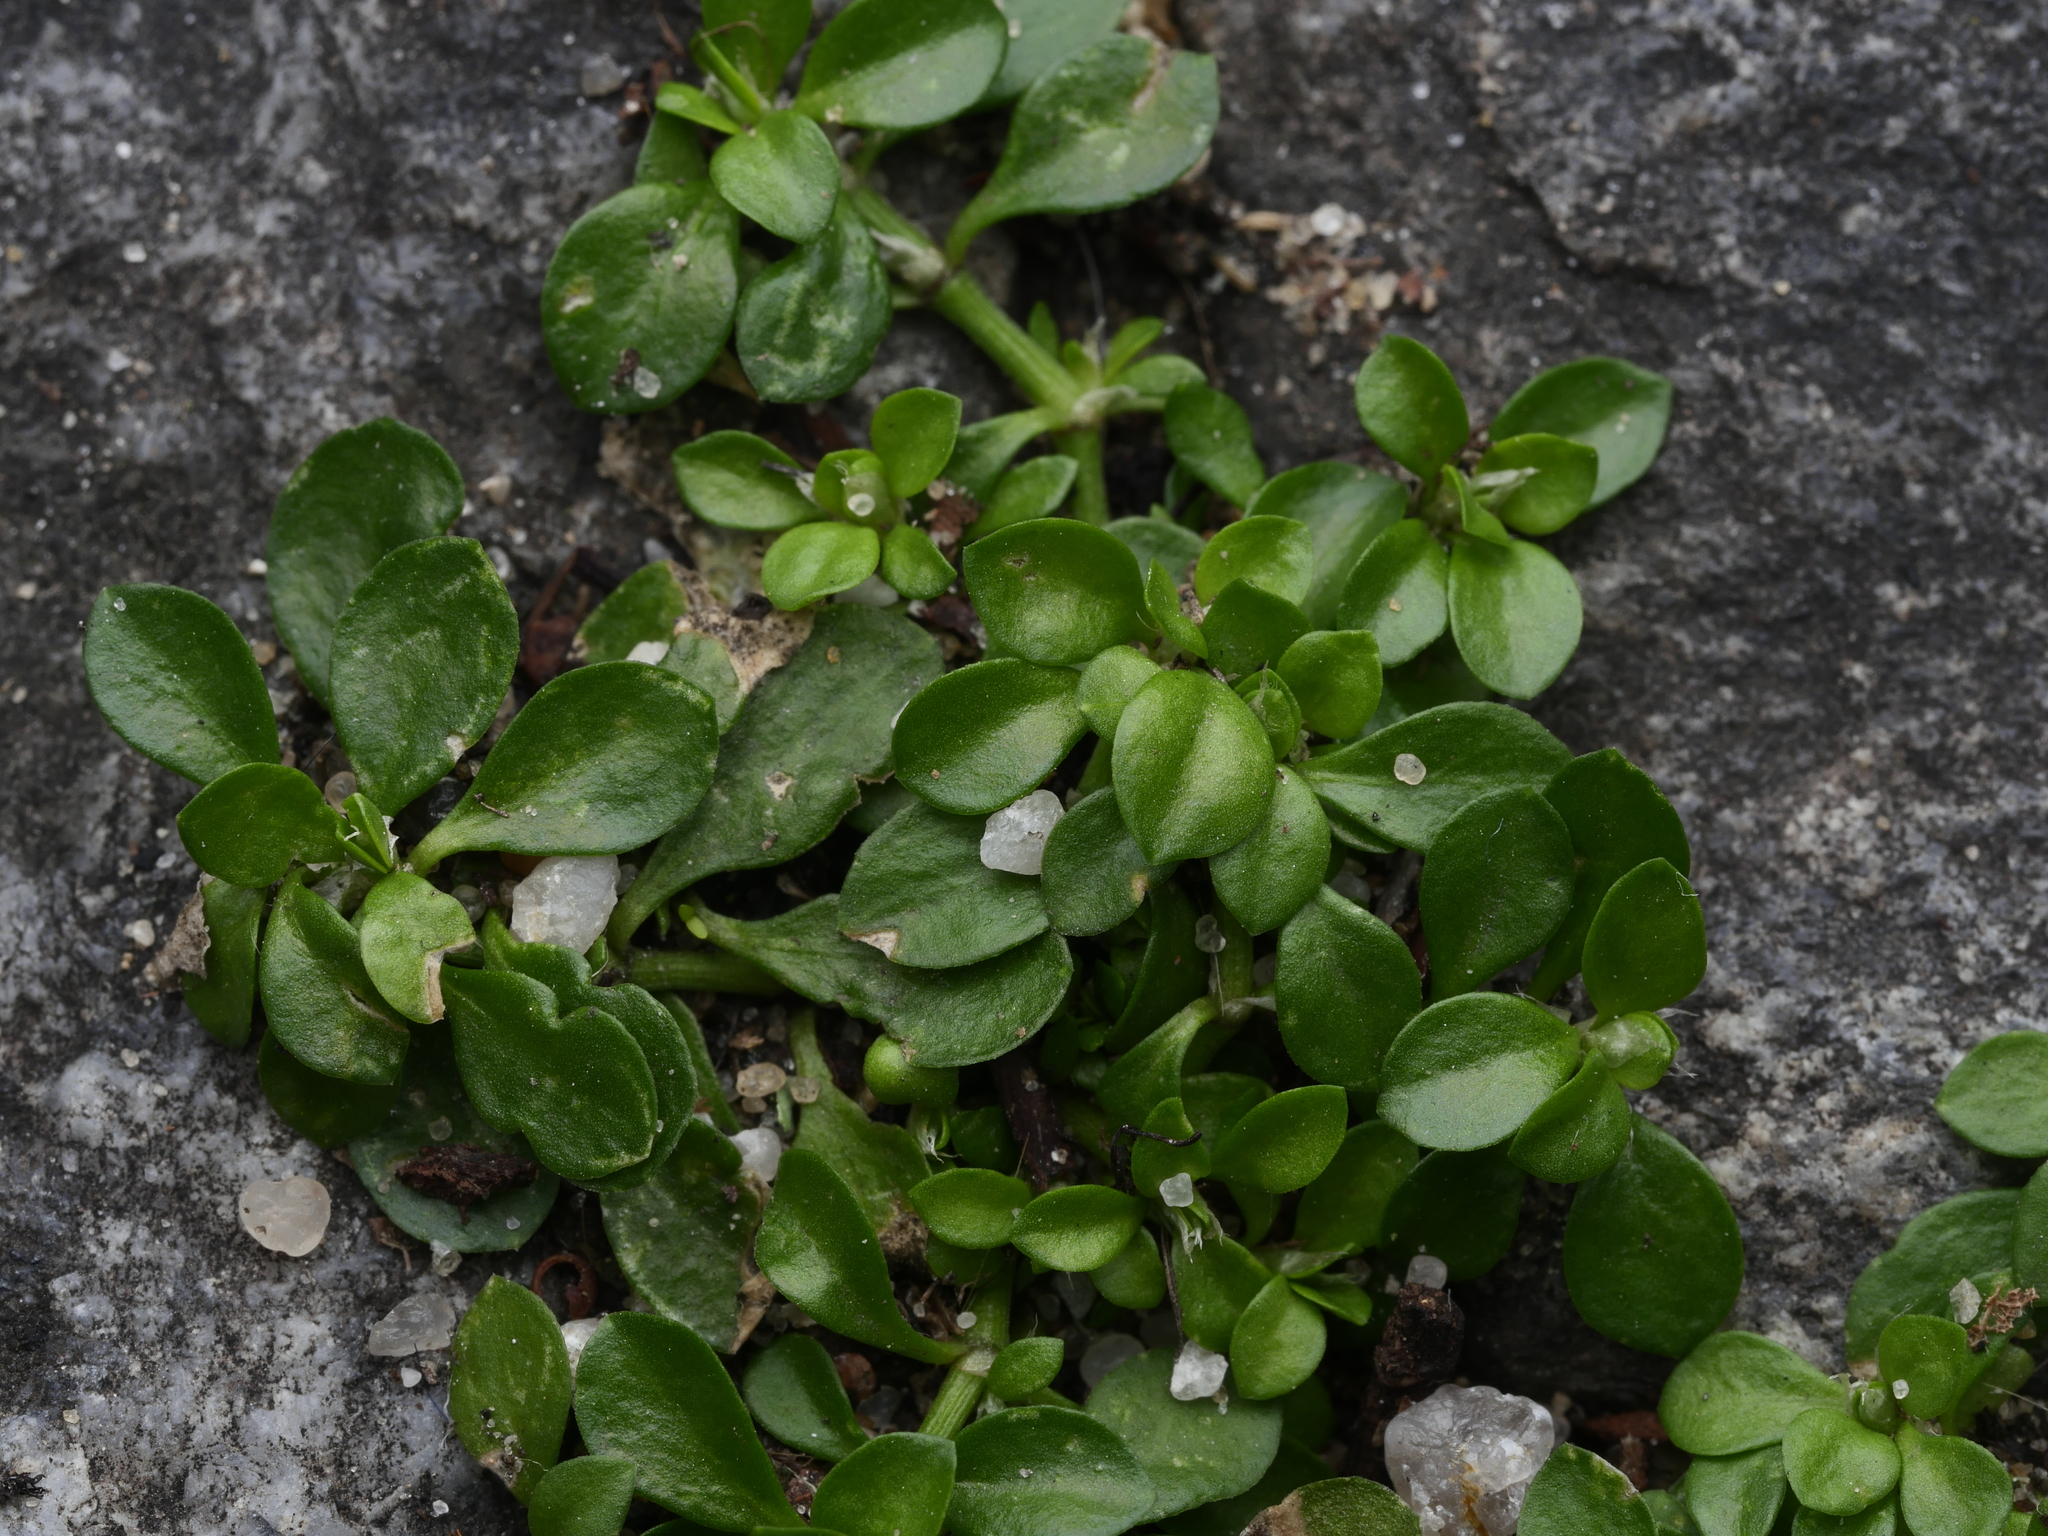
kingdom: Plantae
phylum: Tracheophyta
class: Magnoliopsida
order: Caryophyllales
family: Caryophyllaceae
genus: Polycarpon
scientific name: Polycarpon tetraphyllum
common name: Four-leaved all-seed
